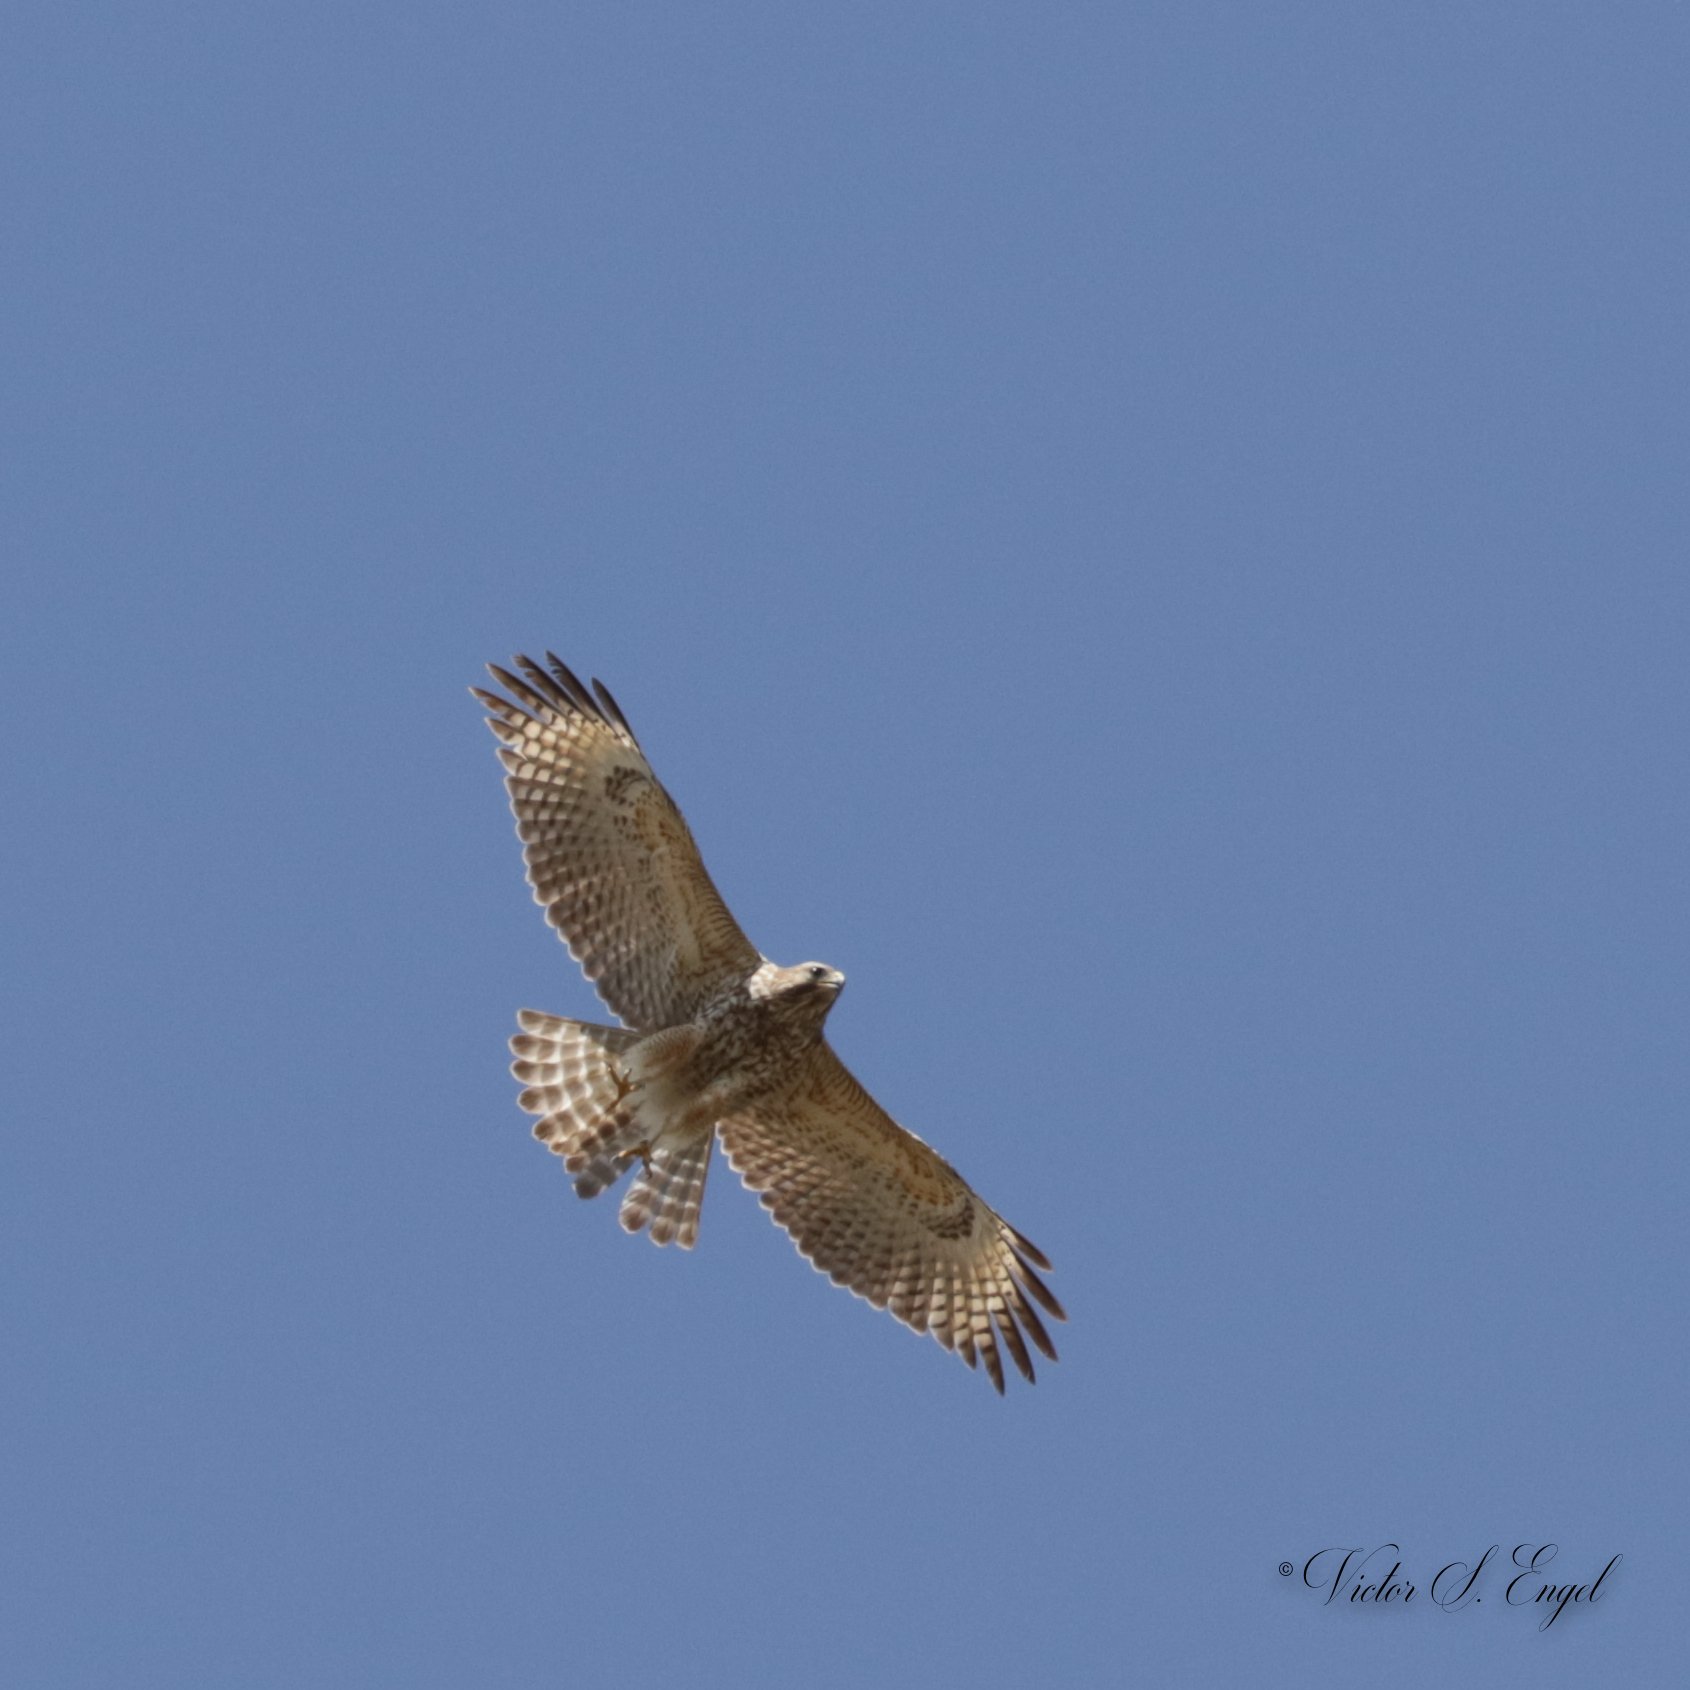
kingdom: Animalia
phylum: Chordata
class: Aves
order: Accipitriformes
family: Accipitridae
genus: Buteo
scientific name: Buteo lineatus
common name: Red-shouldered hawk
